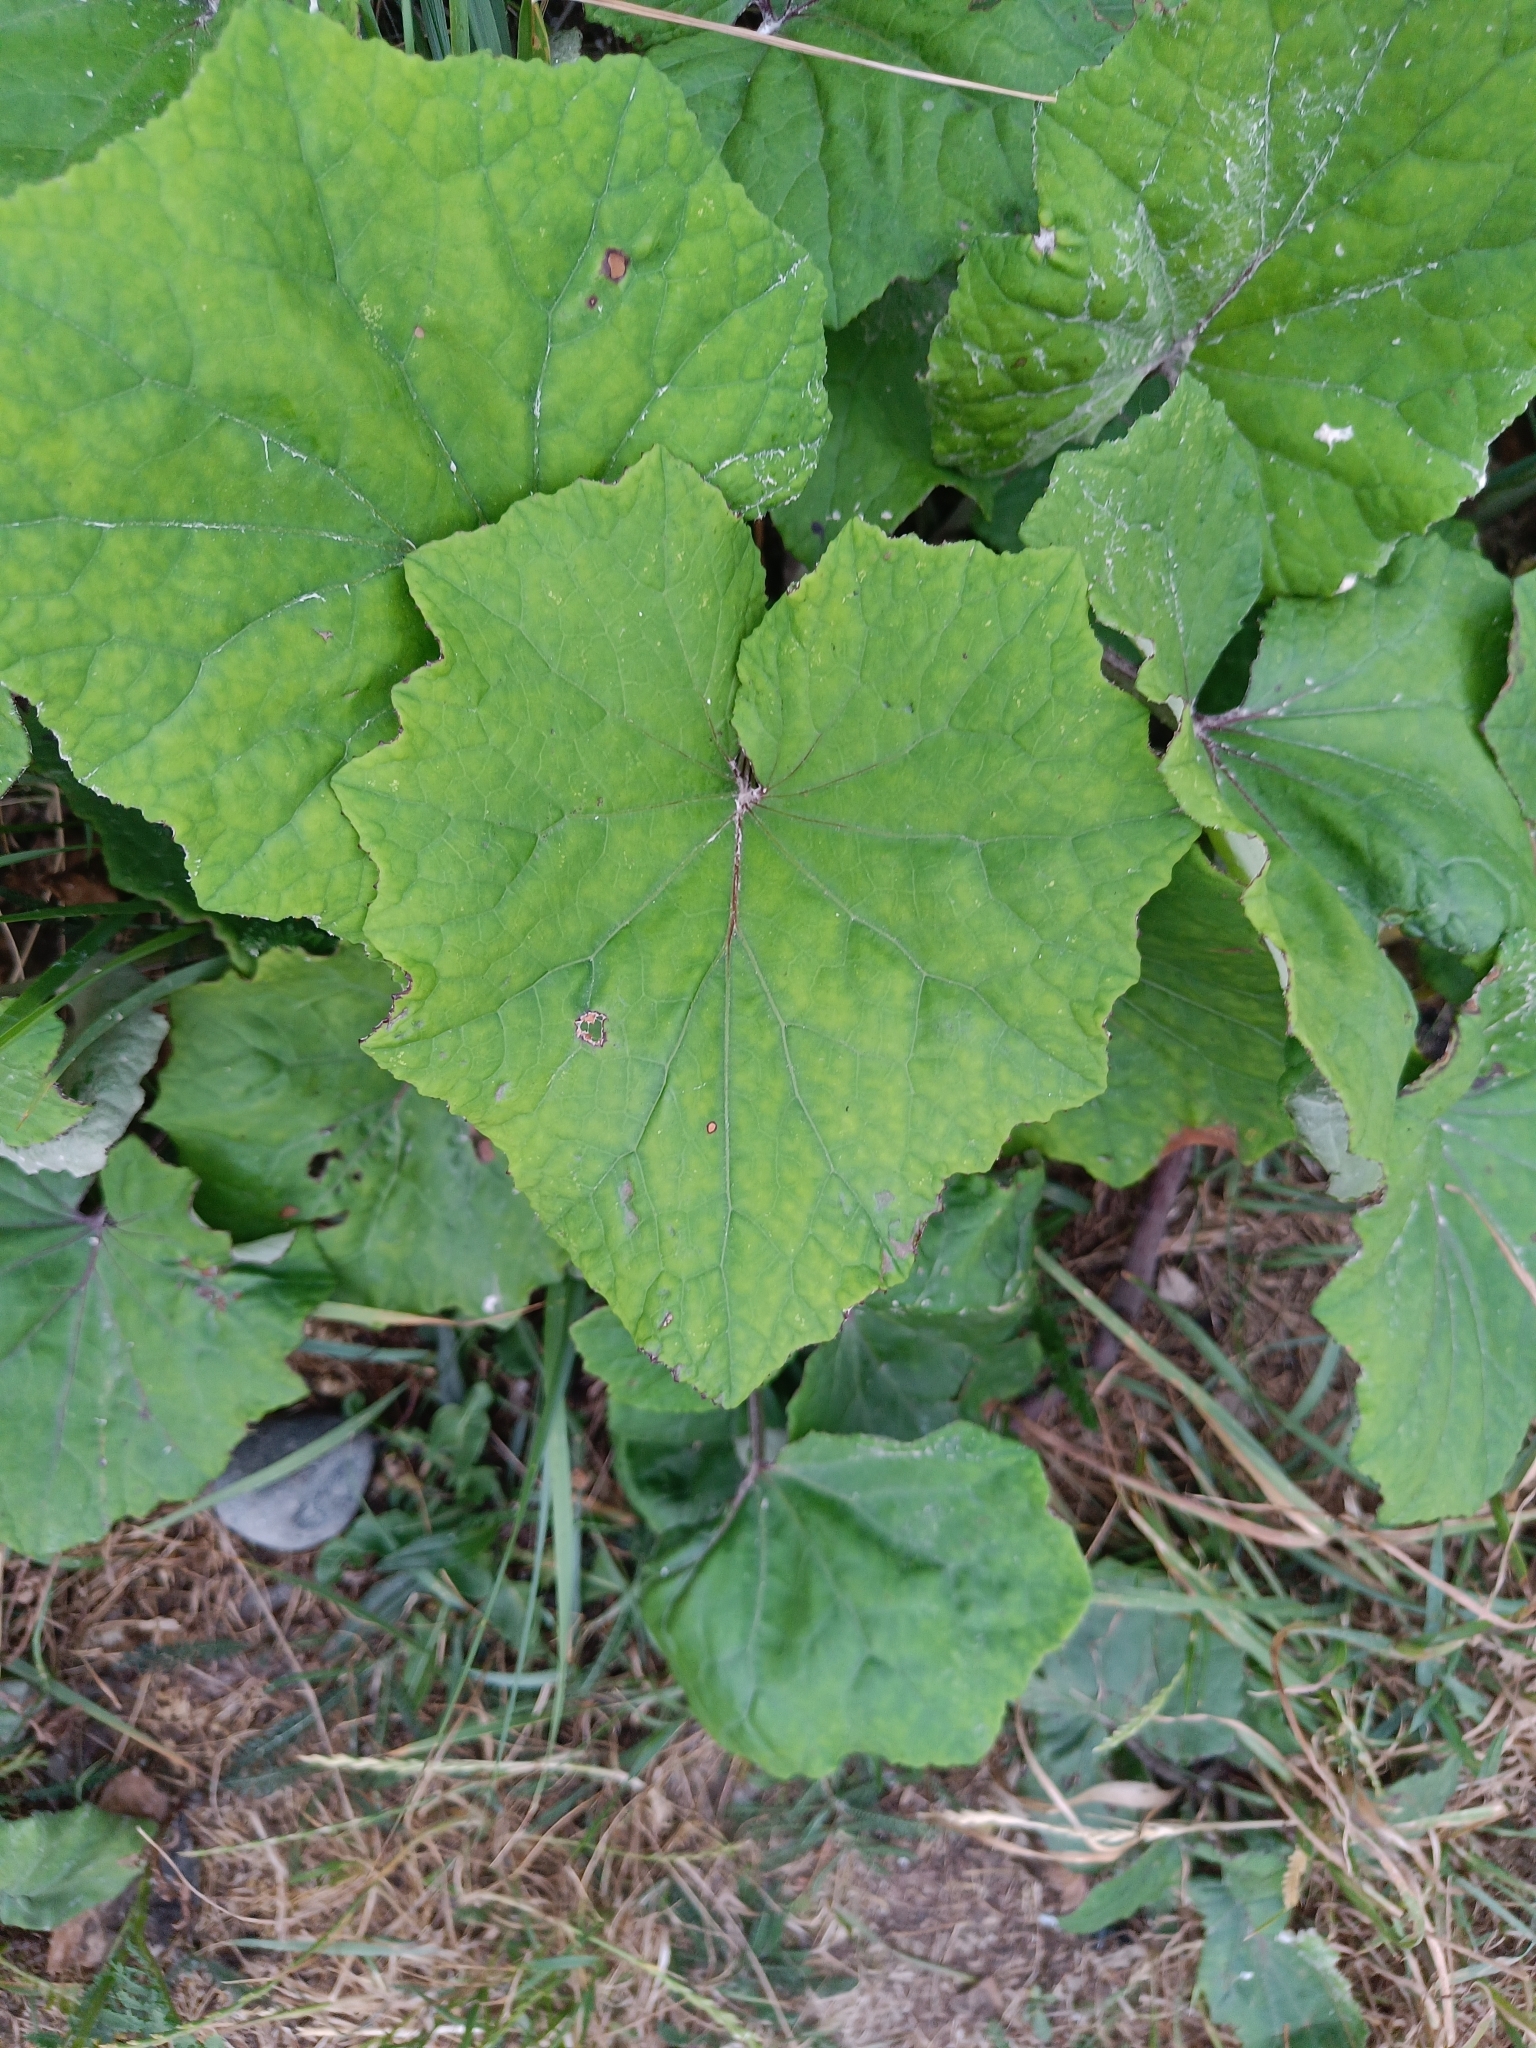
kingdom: Plantae
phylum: Tracheophyta
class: Magnoliopsida
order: Asterales
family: Asteraceae
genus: Tussilago
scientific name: Tussilago farfara
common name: Coltsfoot
